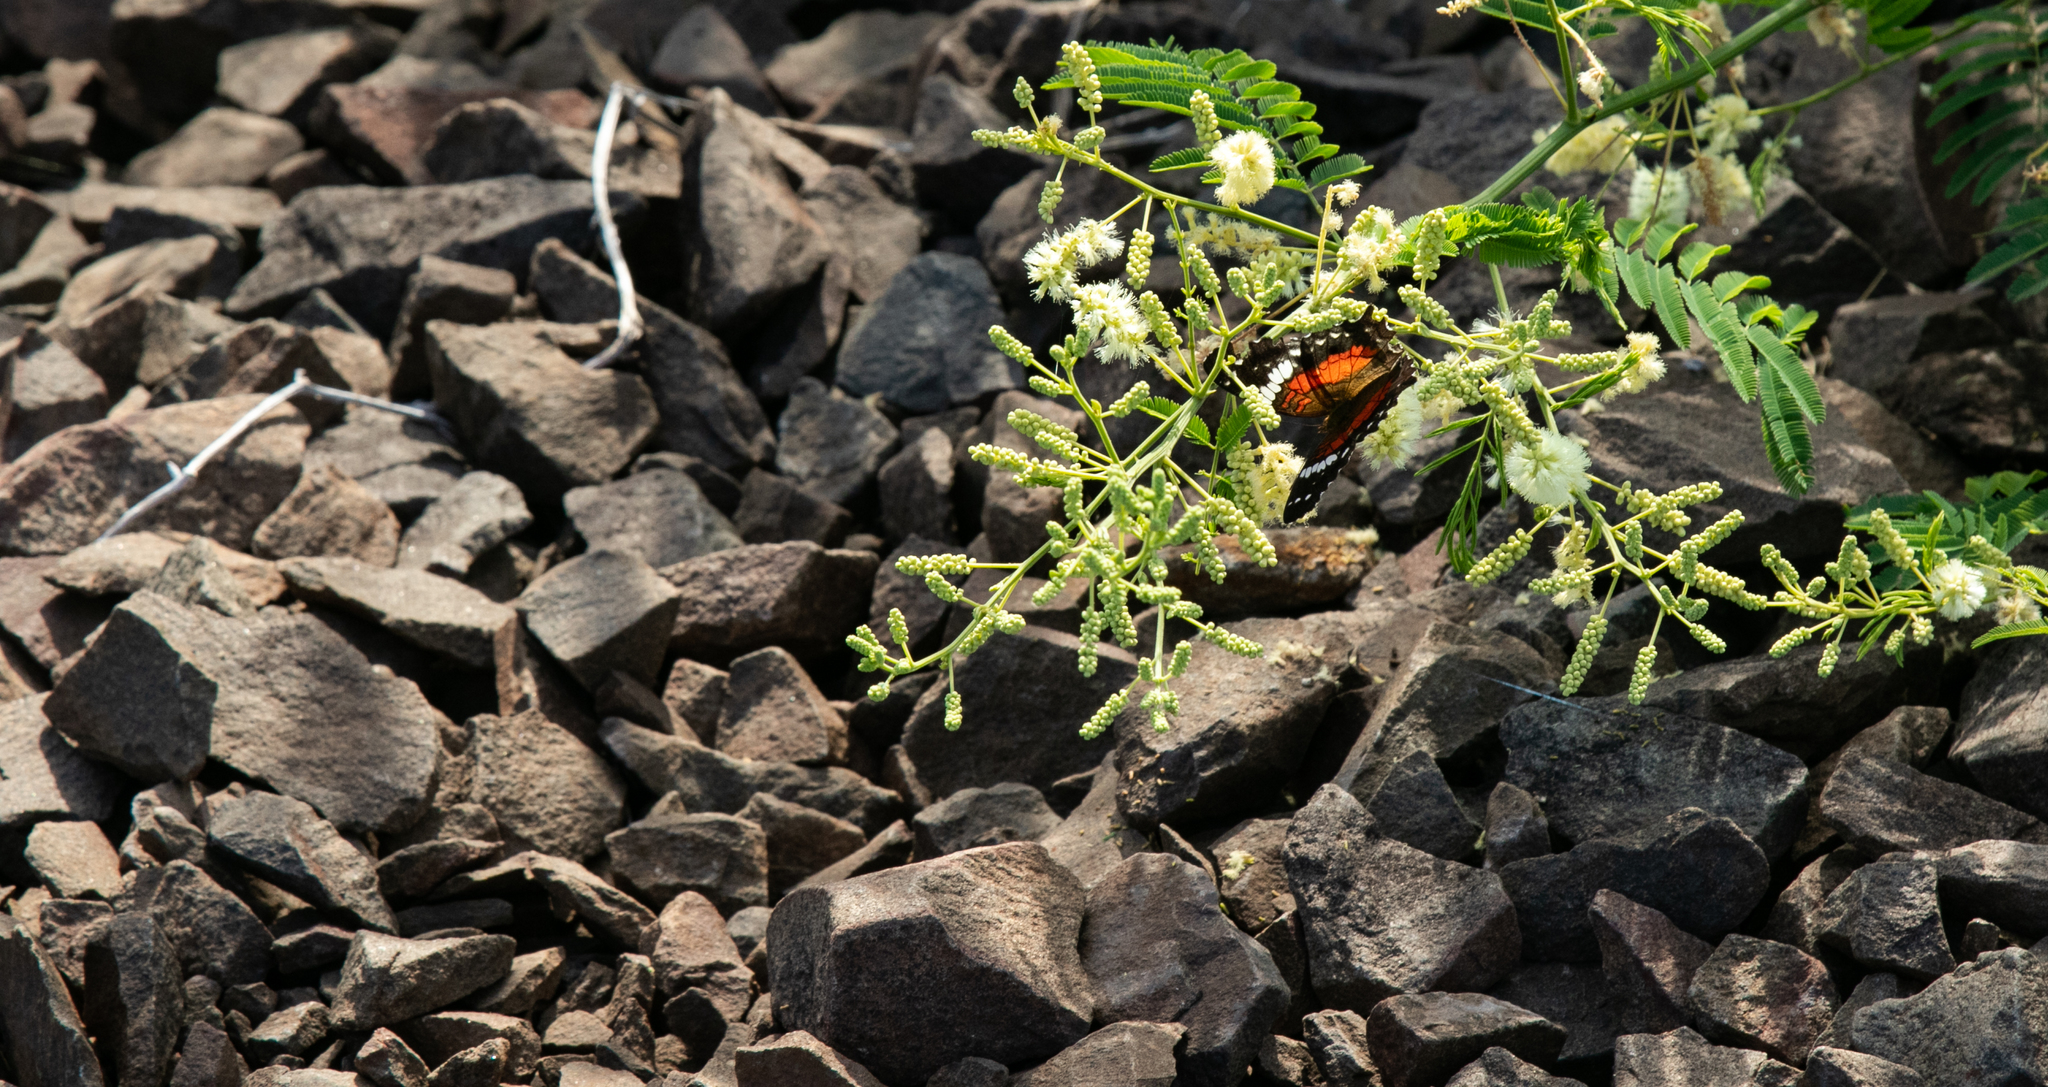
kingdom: Animalia
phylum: Arthropoda
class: Insecta
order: Lepidoptera
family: Nymphalidae
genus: Anartia
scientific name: Anartia amathea
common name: Red peacock
